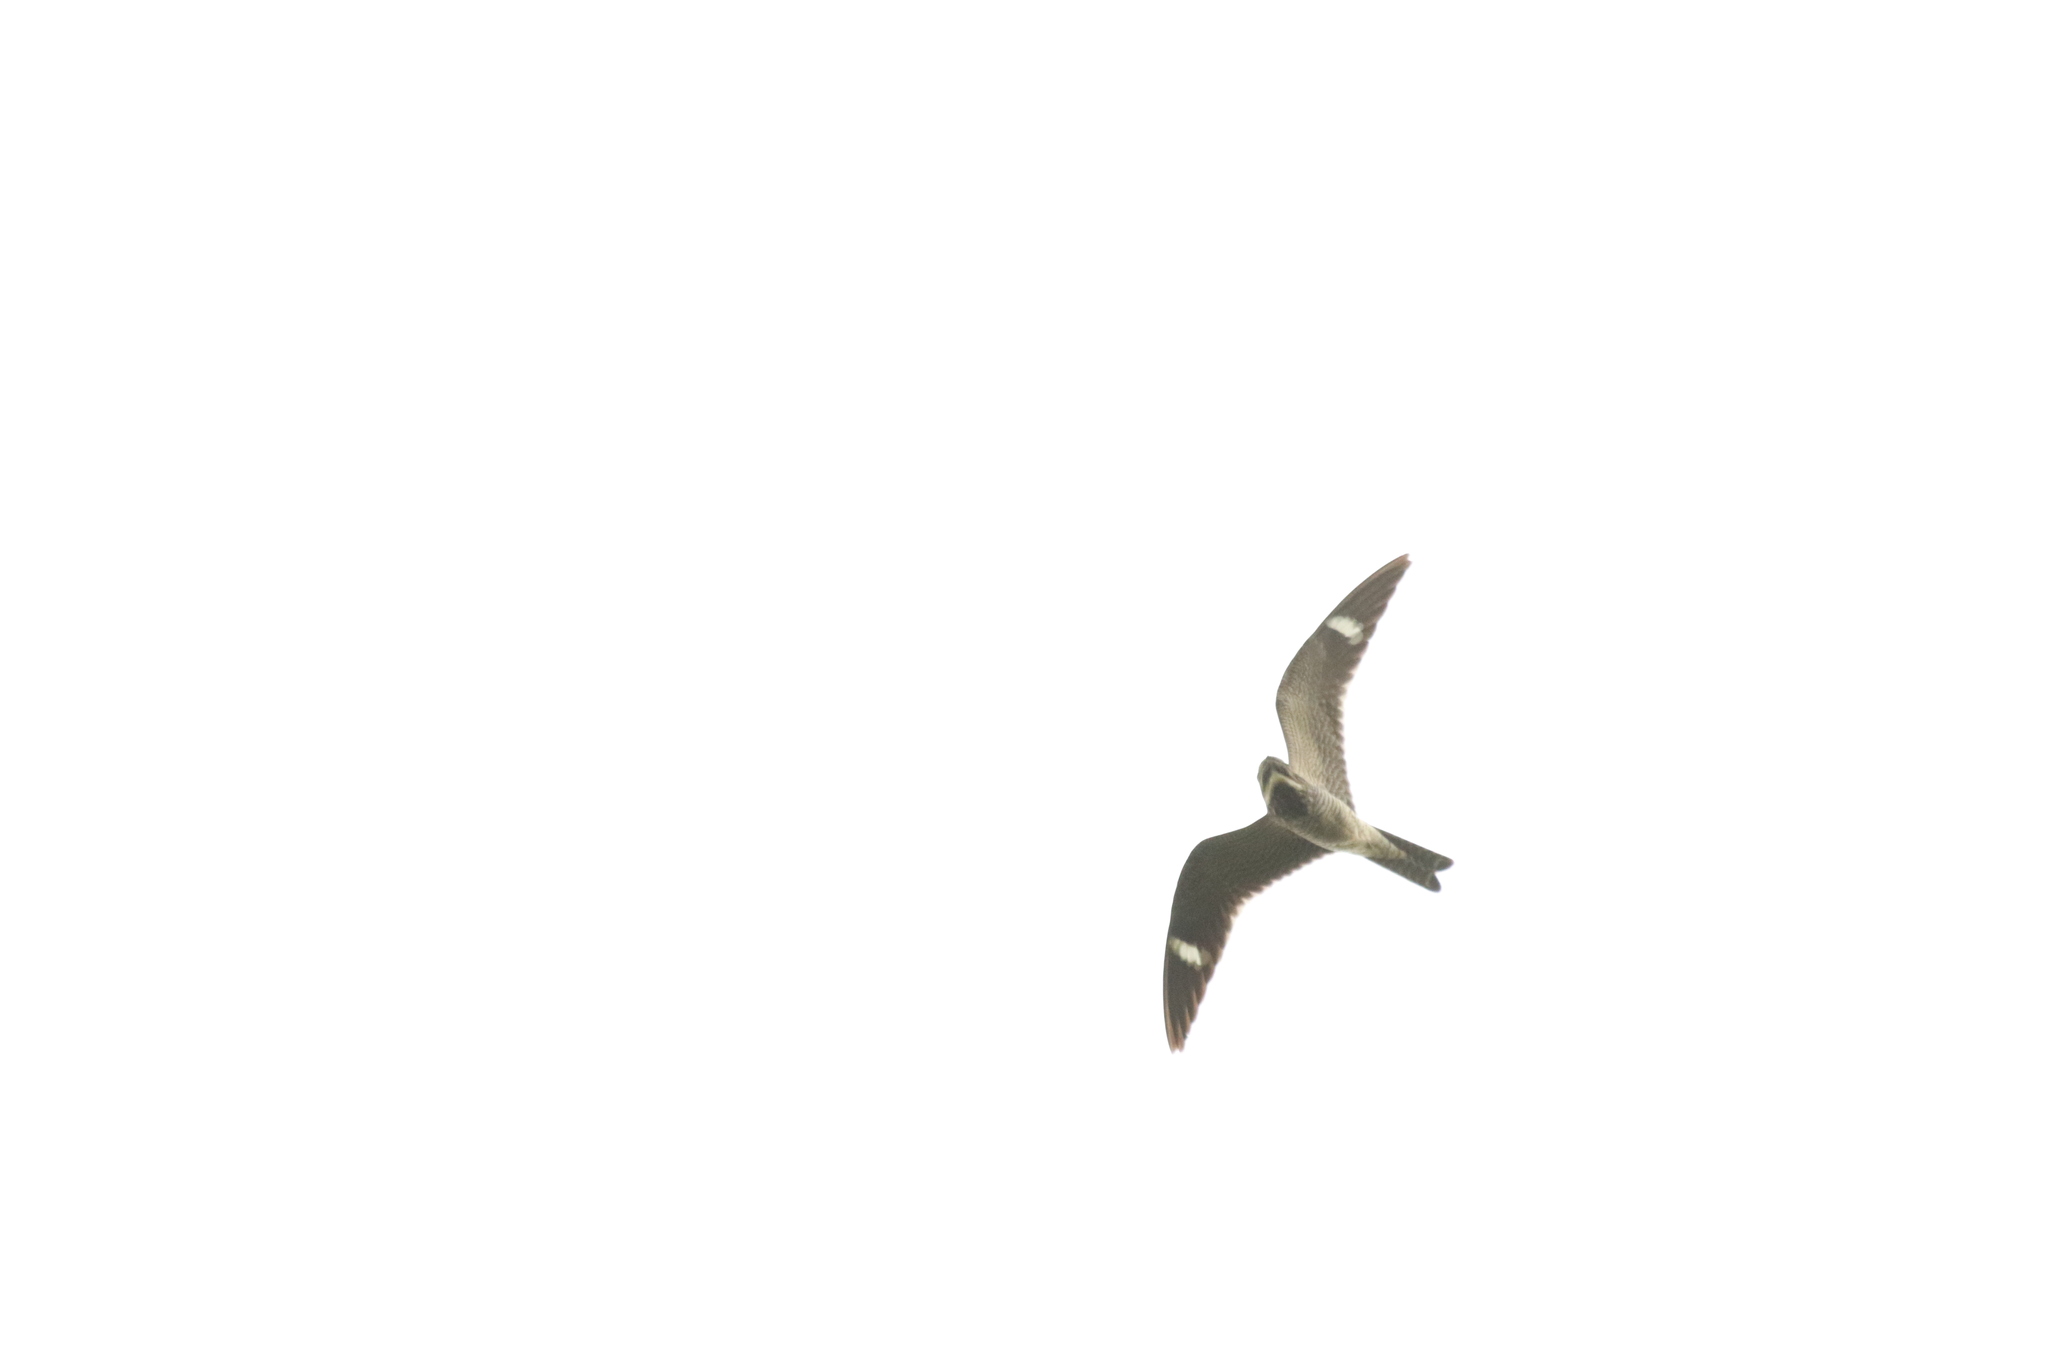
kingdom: Animalia
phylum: Chordata
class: Aves
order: Caprimulgiformes
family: Caprimulgidae
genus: Chordeiles
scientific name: Chordeiles minor
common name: Common nighthawk
